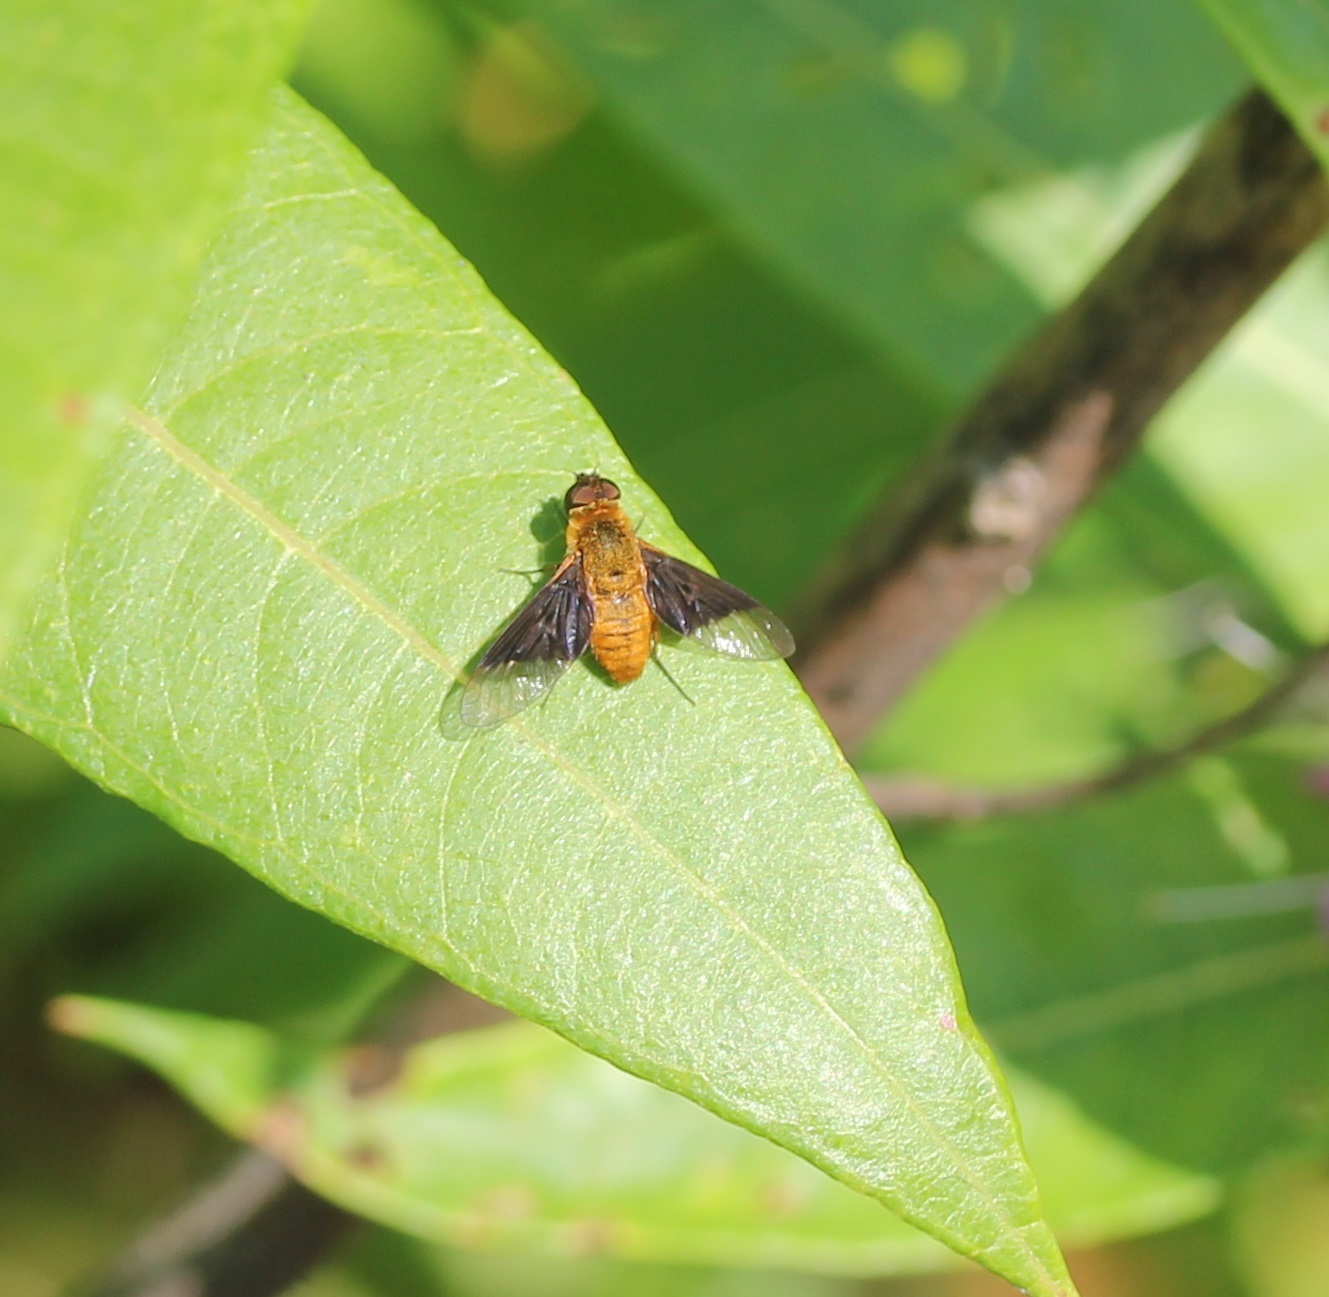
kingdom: Animalia
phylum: Arthropoda
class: Insecta
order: Diptera
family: Bombyliidae
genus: Chrysanthrax
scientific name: Chrysanthrax cypris
